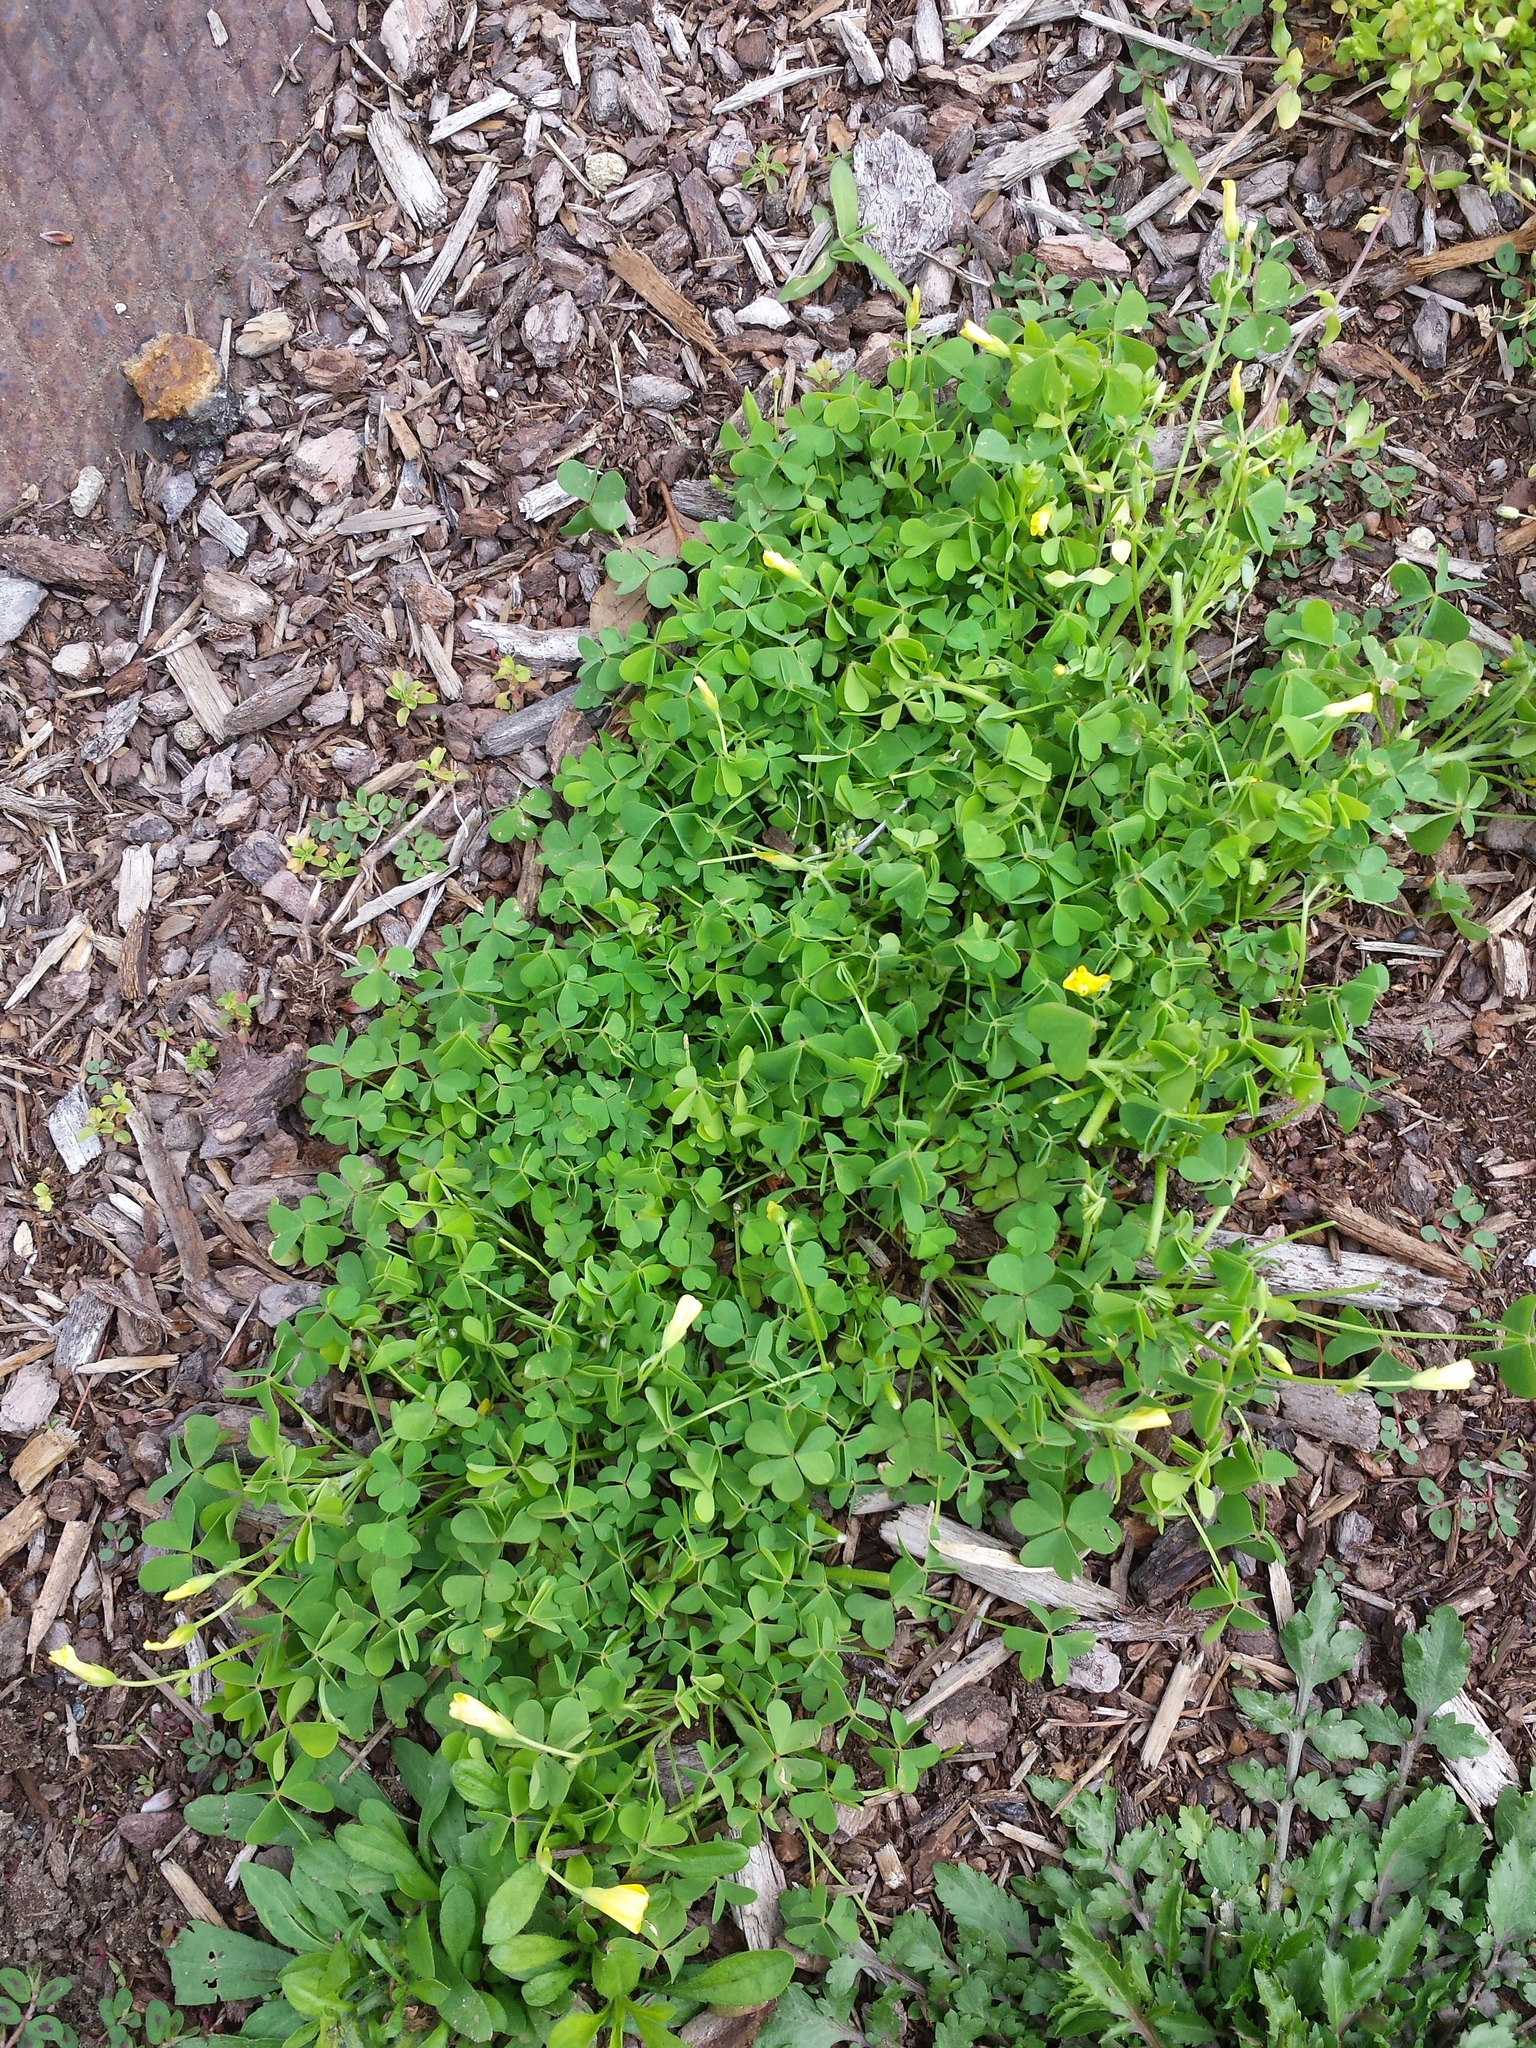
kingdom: Plantae
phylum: Tracheophyta
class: Magnoliopsida
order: Oxalidales
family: Oxalidaceae
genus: Oxalis
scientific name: Oxalis dillenii
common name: Sussex yellow-sorrel
